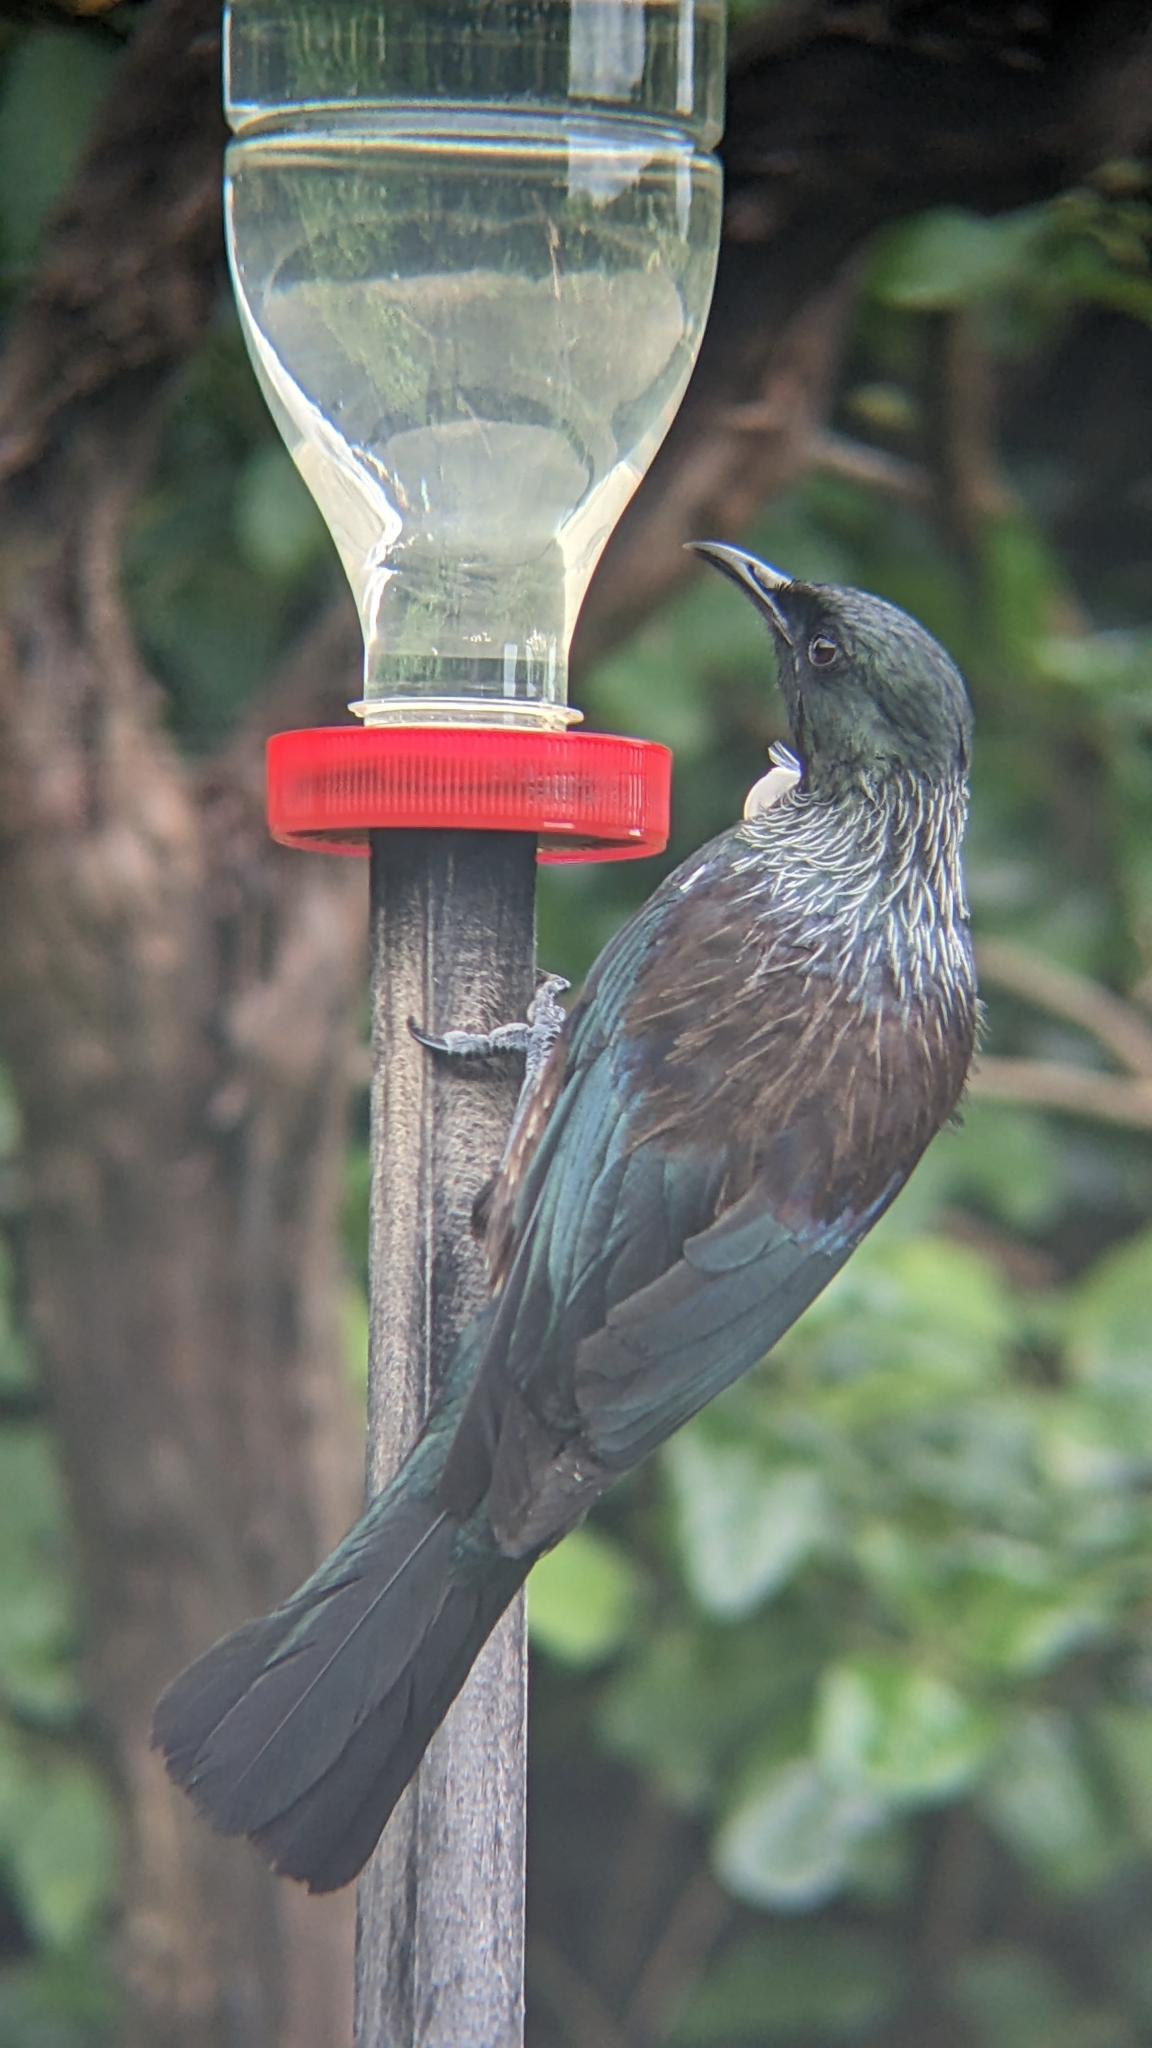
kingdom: Animalia
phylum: Chordata
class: Aves
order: Passeriformes
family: Meliphagidae
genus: Prosthemadera
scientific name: Prosthemadera novaeseelandiae
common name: Tui
